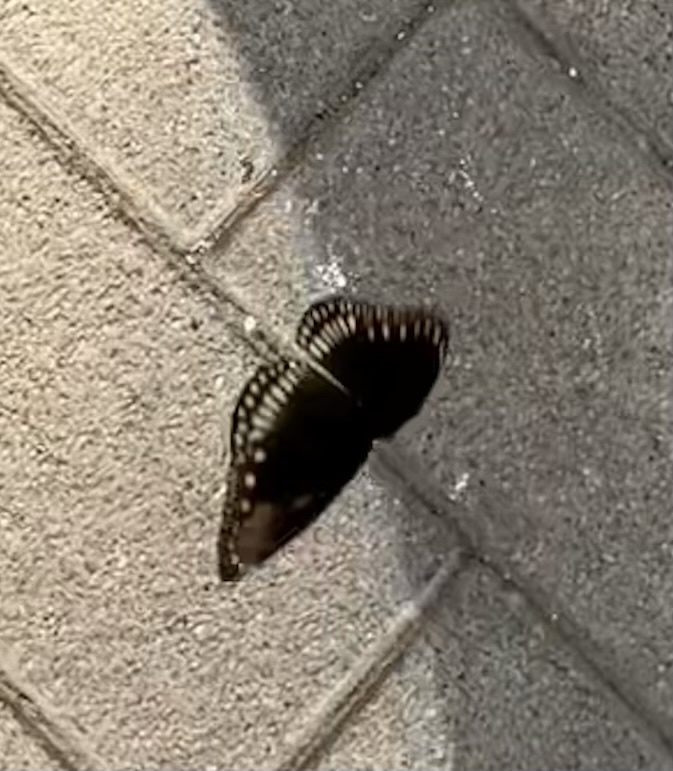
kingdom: Animalia
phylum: Arthropoda
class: Insecta
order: Lepidoptera
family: Nymphalidae
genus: Euploea
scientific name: Euploea core
